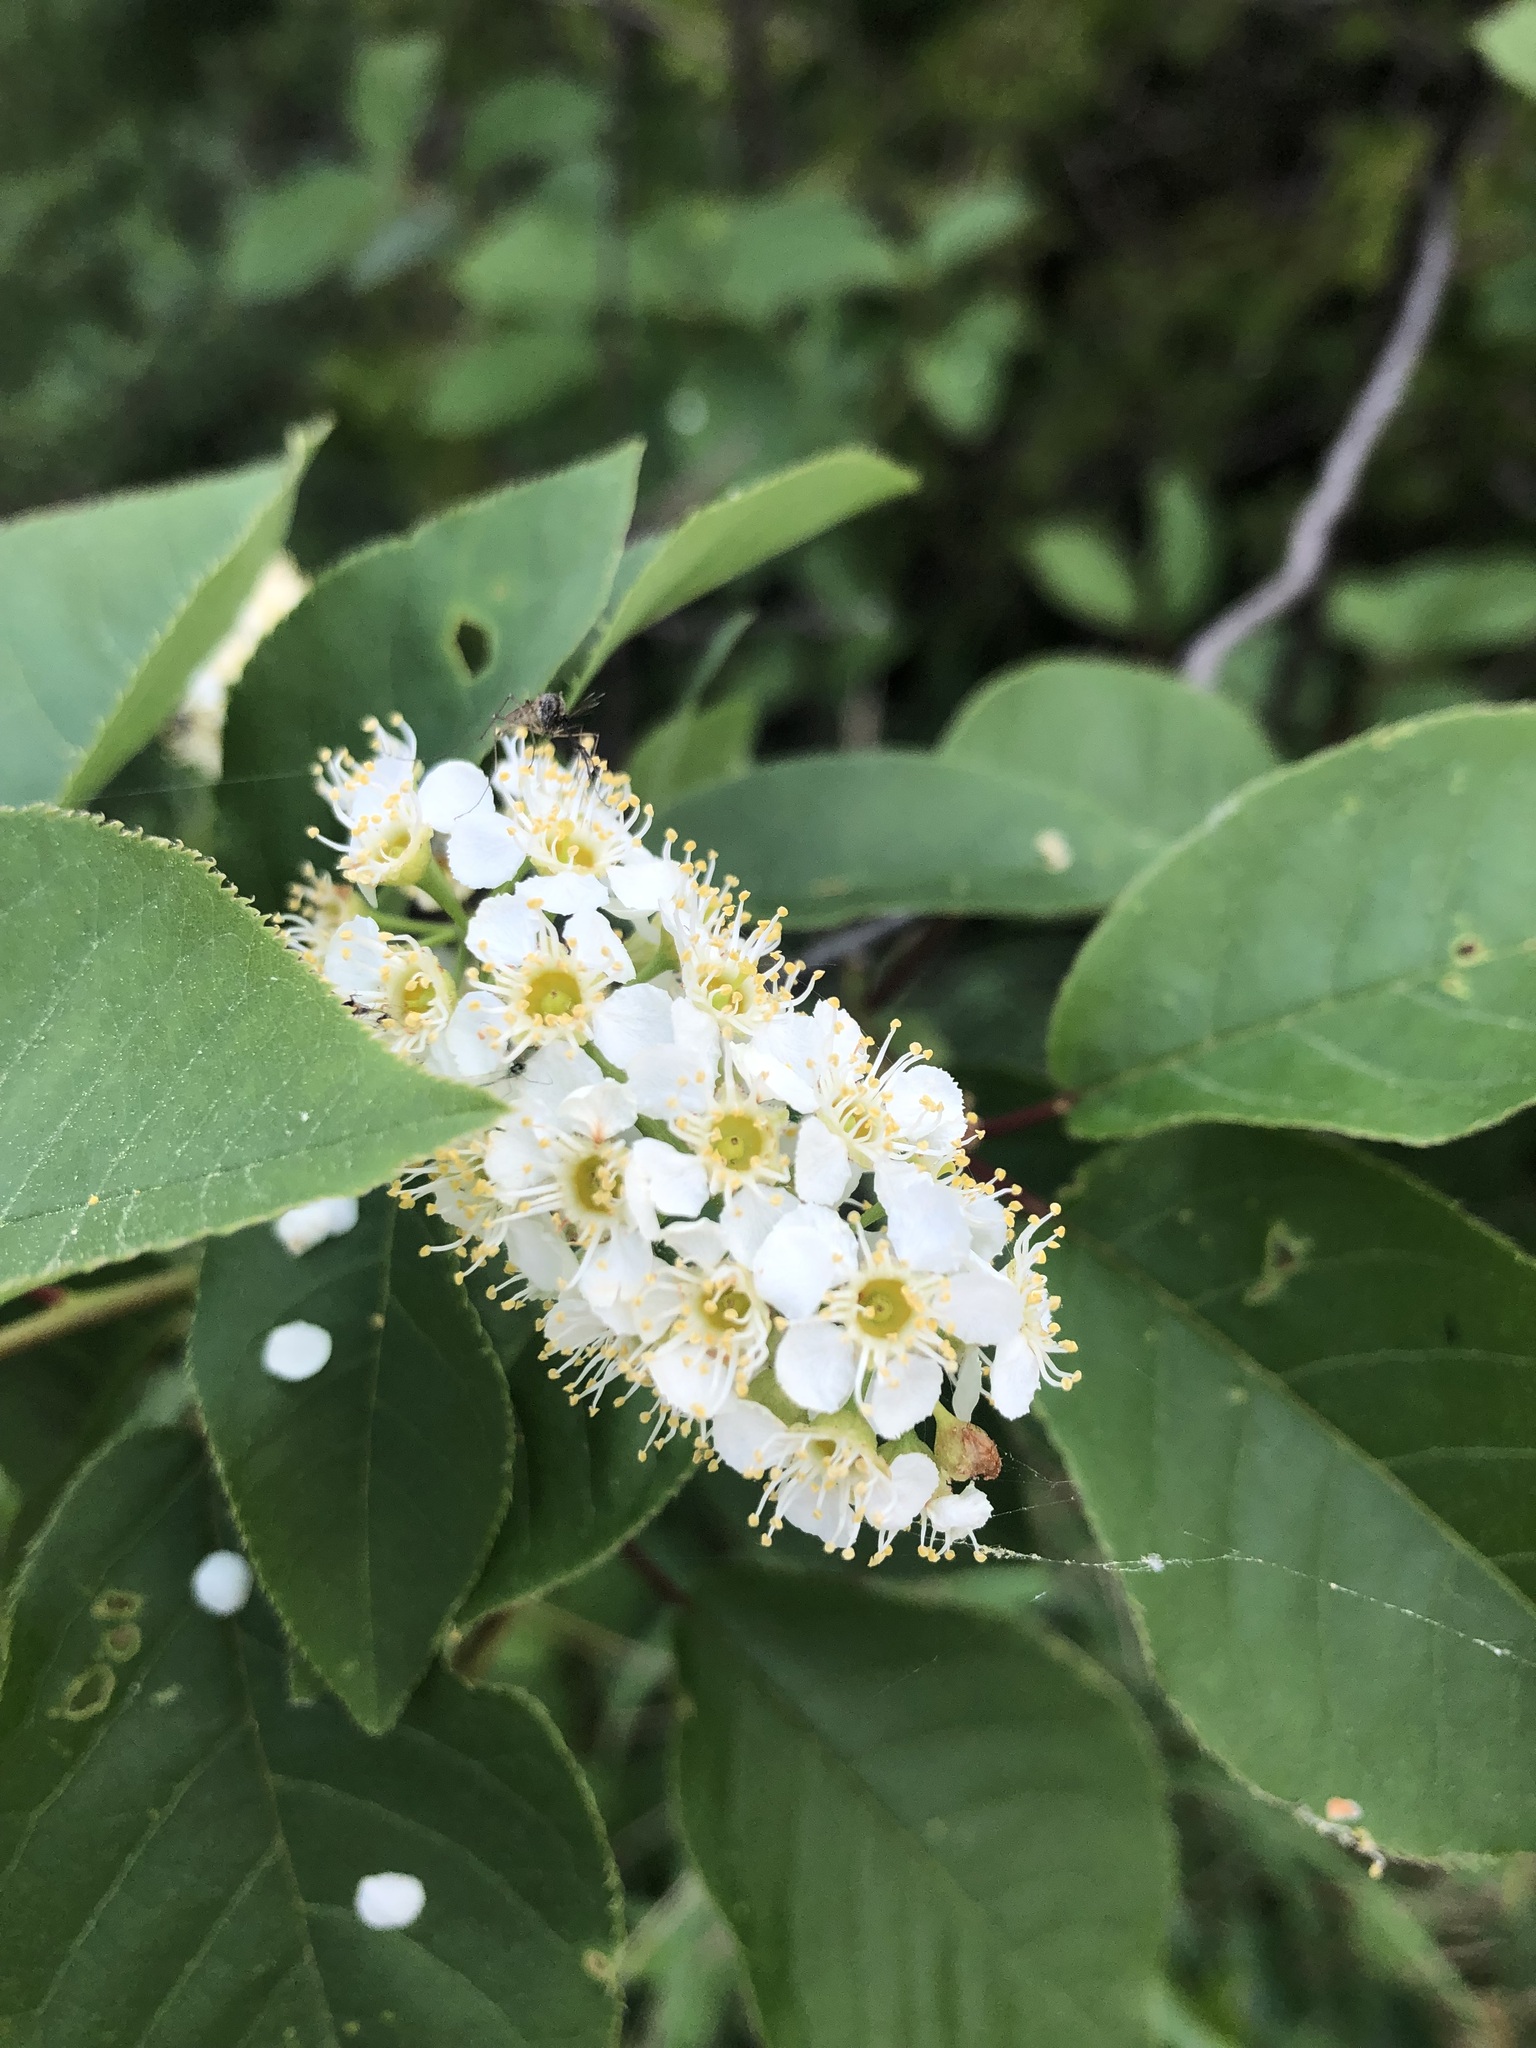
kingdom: Plantae
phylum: Tracheophyta
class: Magnoliopsida
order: Rosales
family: Rosaceae
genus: Prunus
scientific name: Prunus virginiana
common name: Chokecherry
